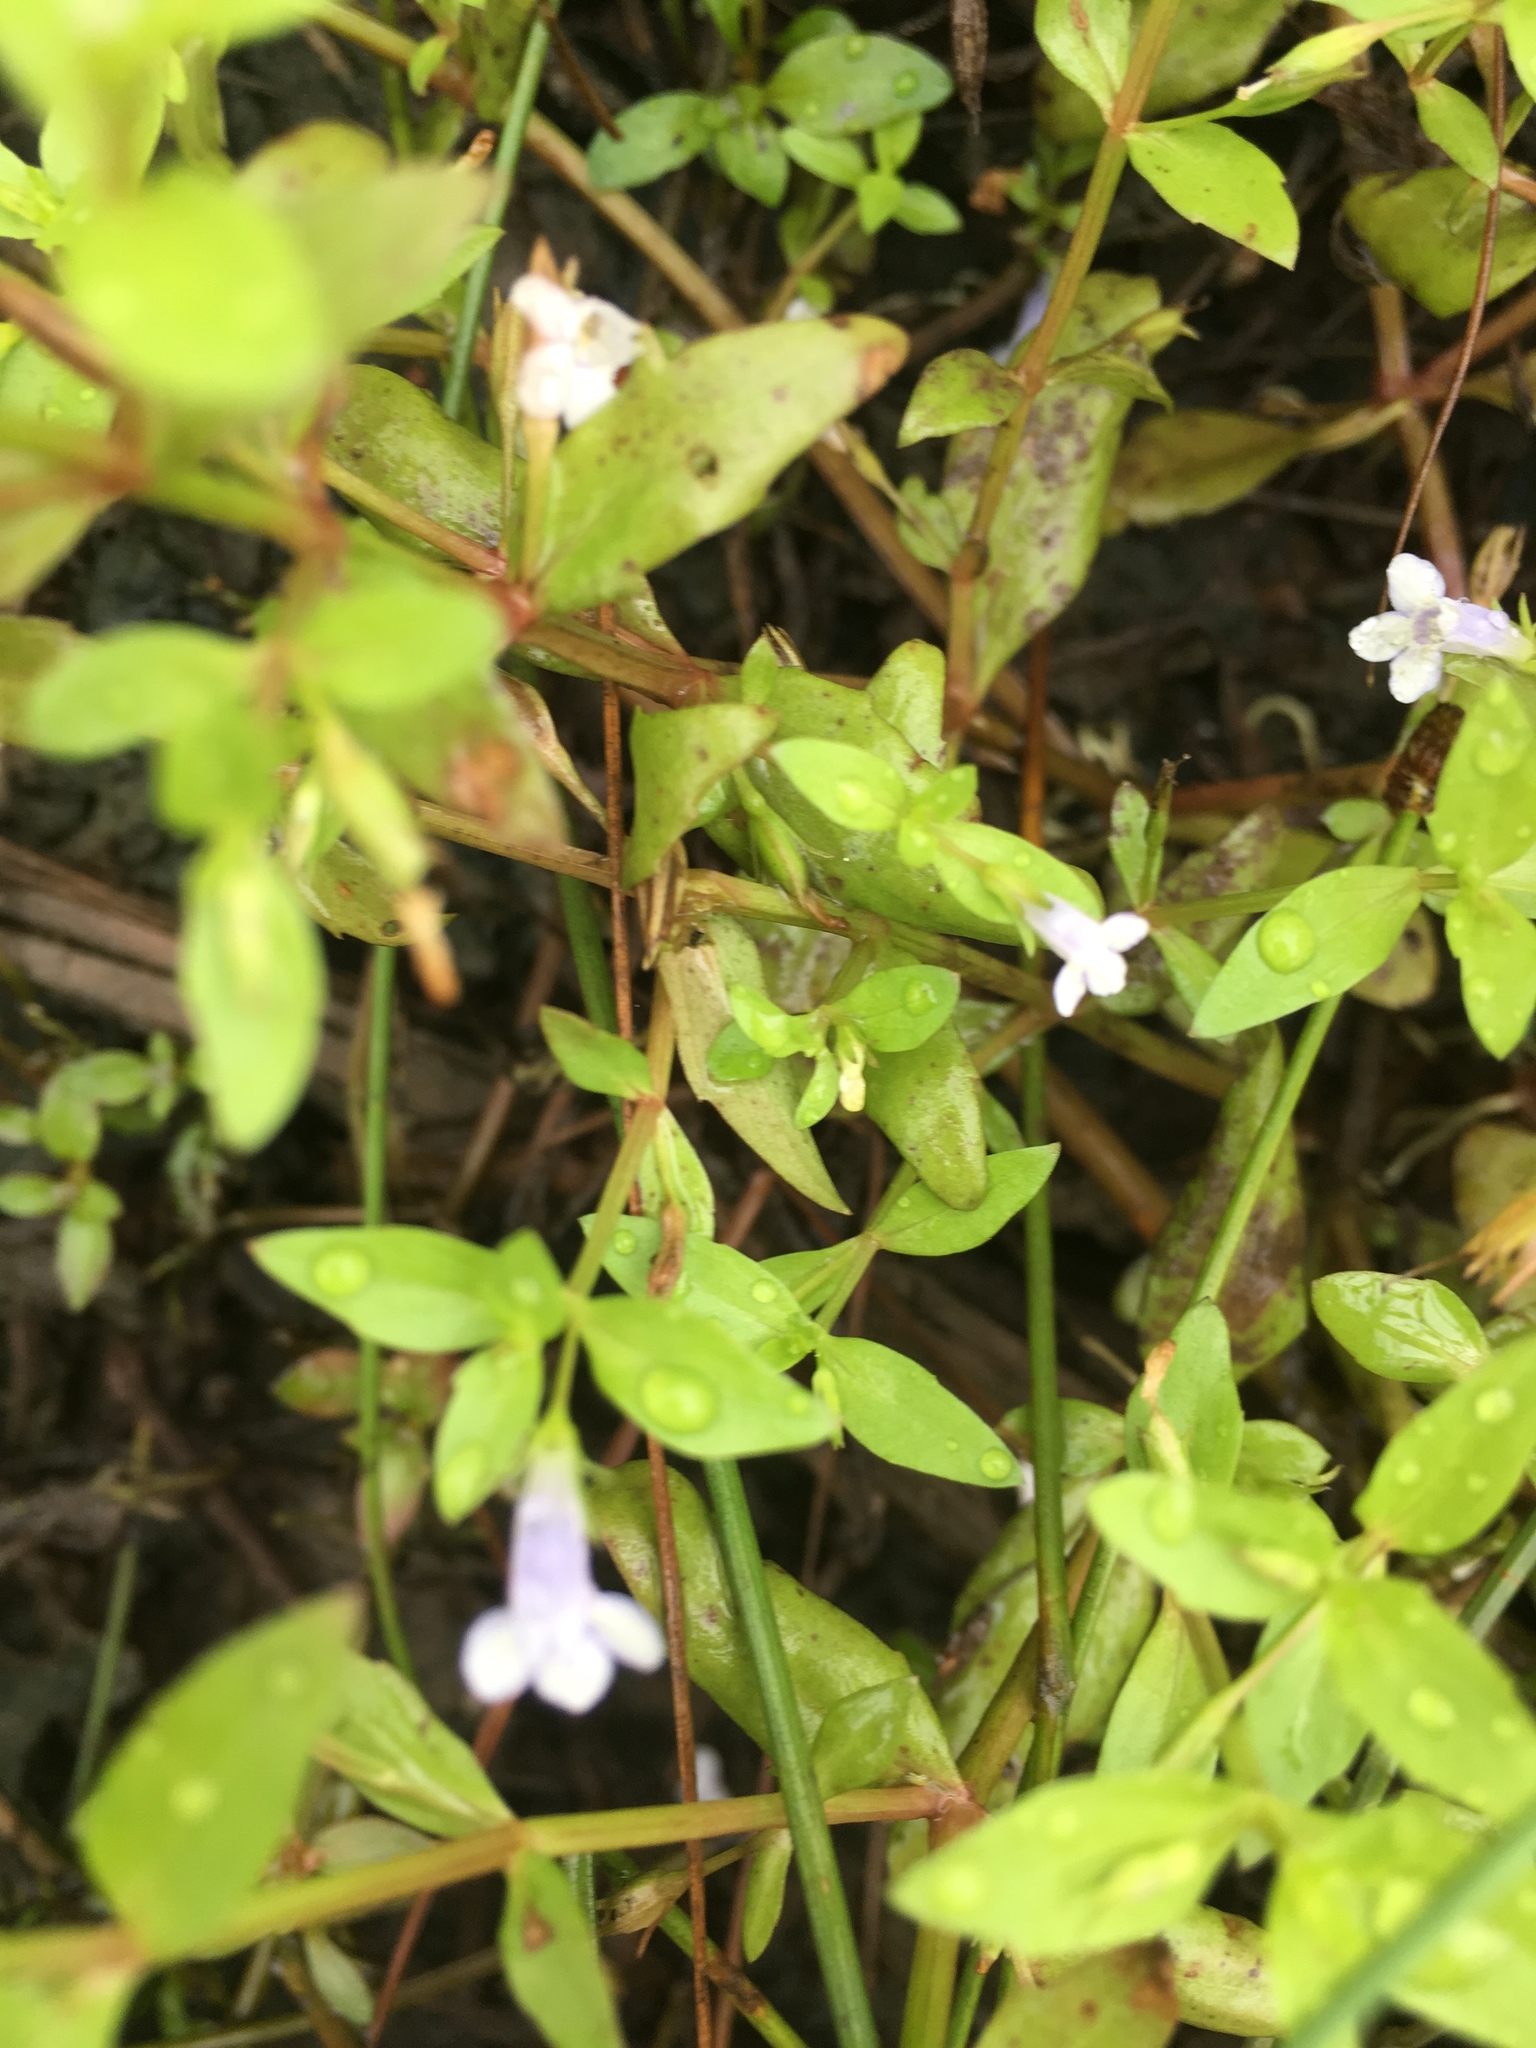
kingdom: Plantae
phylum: Tracheophyta
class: Magnoliopsida
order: Lamiales
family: Linderniaceae
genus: Lindernia
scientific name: Lindernia dubia
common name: Annual false pimpernel
